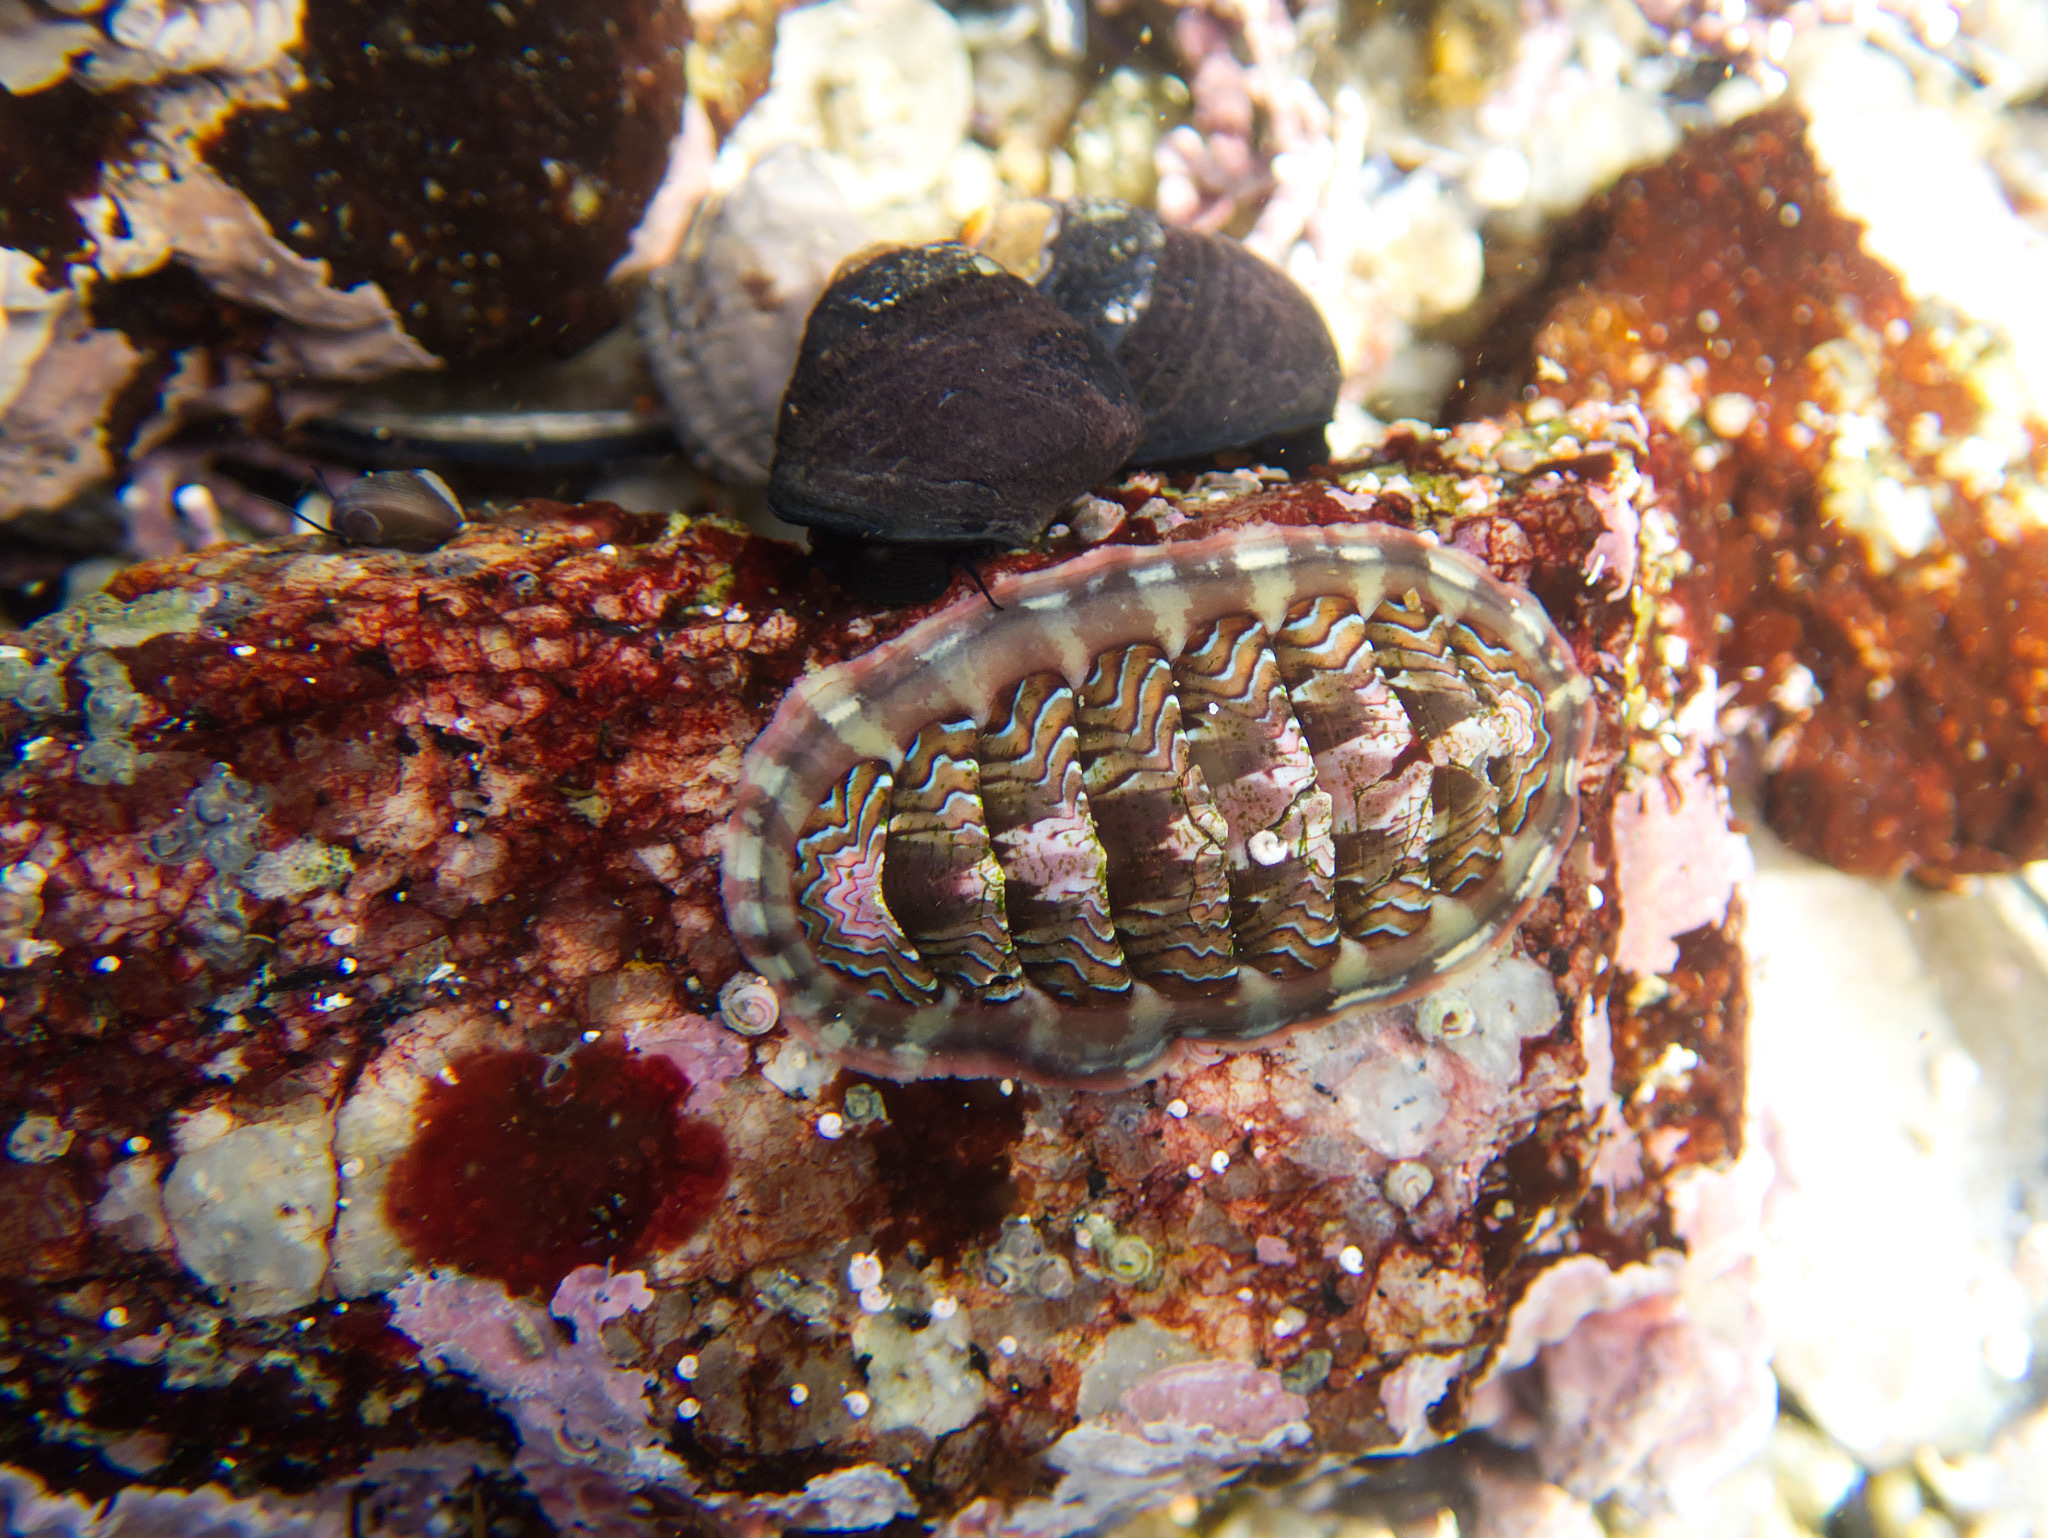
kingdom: Animalia
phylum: Mollusca
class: Polyplacophora
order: Chitonida
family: Tonicellidae
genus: Tonicella
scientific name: Tonicella lokii
